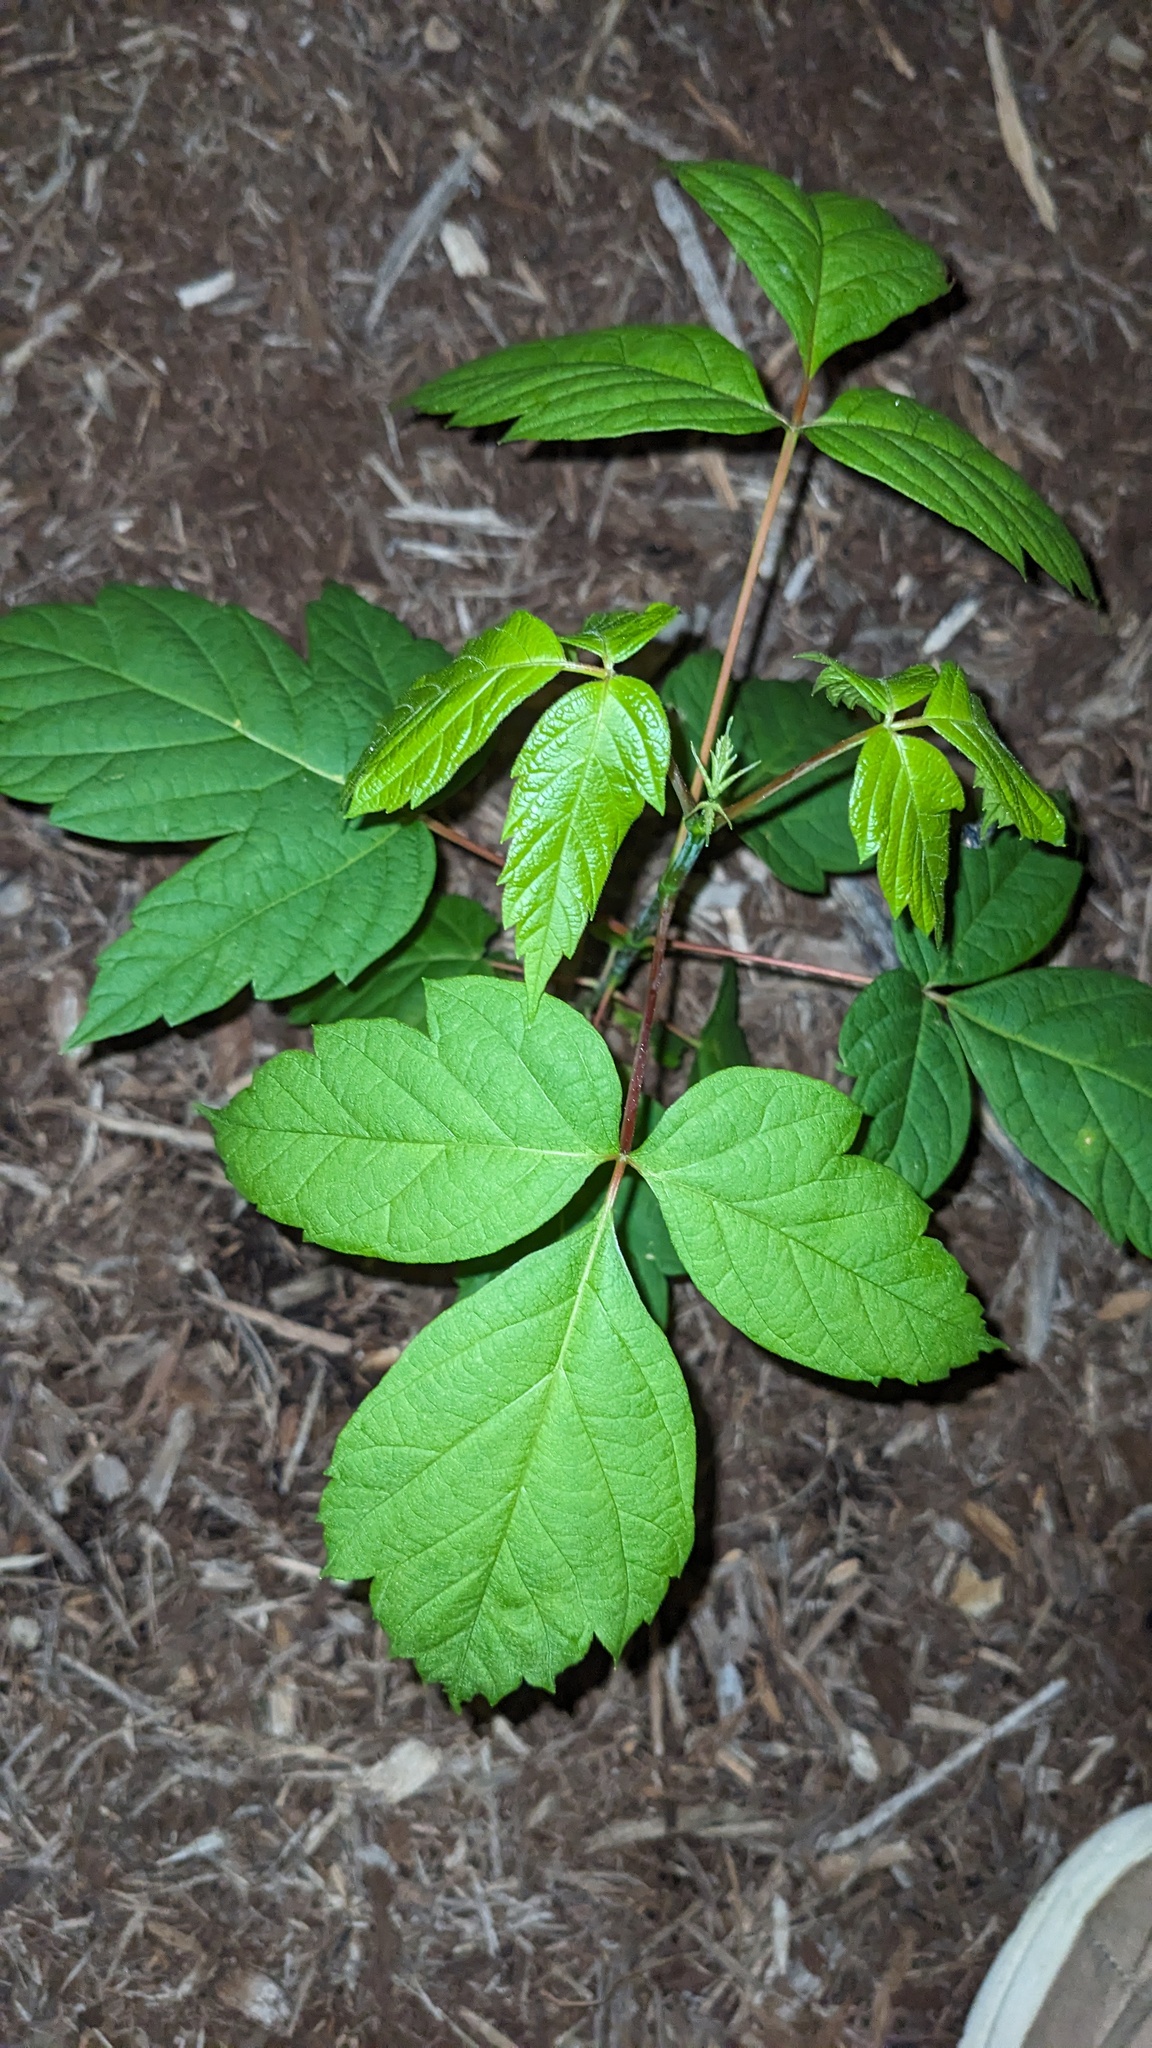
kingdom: Plantae
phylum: Tracheophyta
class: Magnoliopsida
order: Sapindales
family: Sapindaceae
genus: Acer
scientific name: Acer negundo
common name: Ashleaf maple
